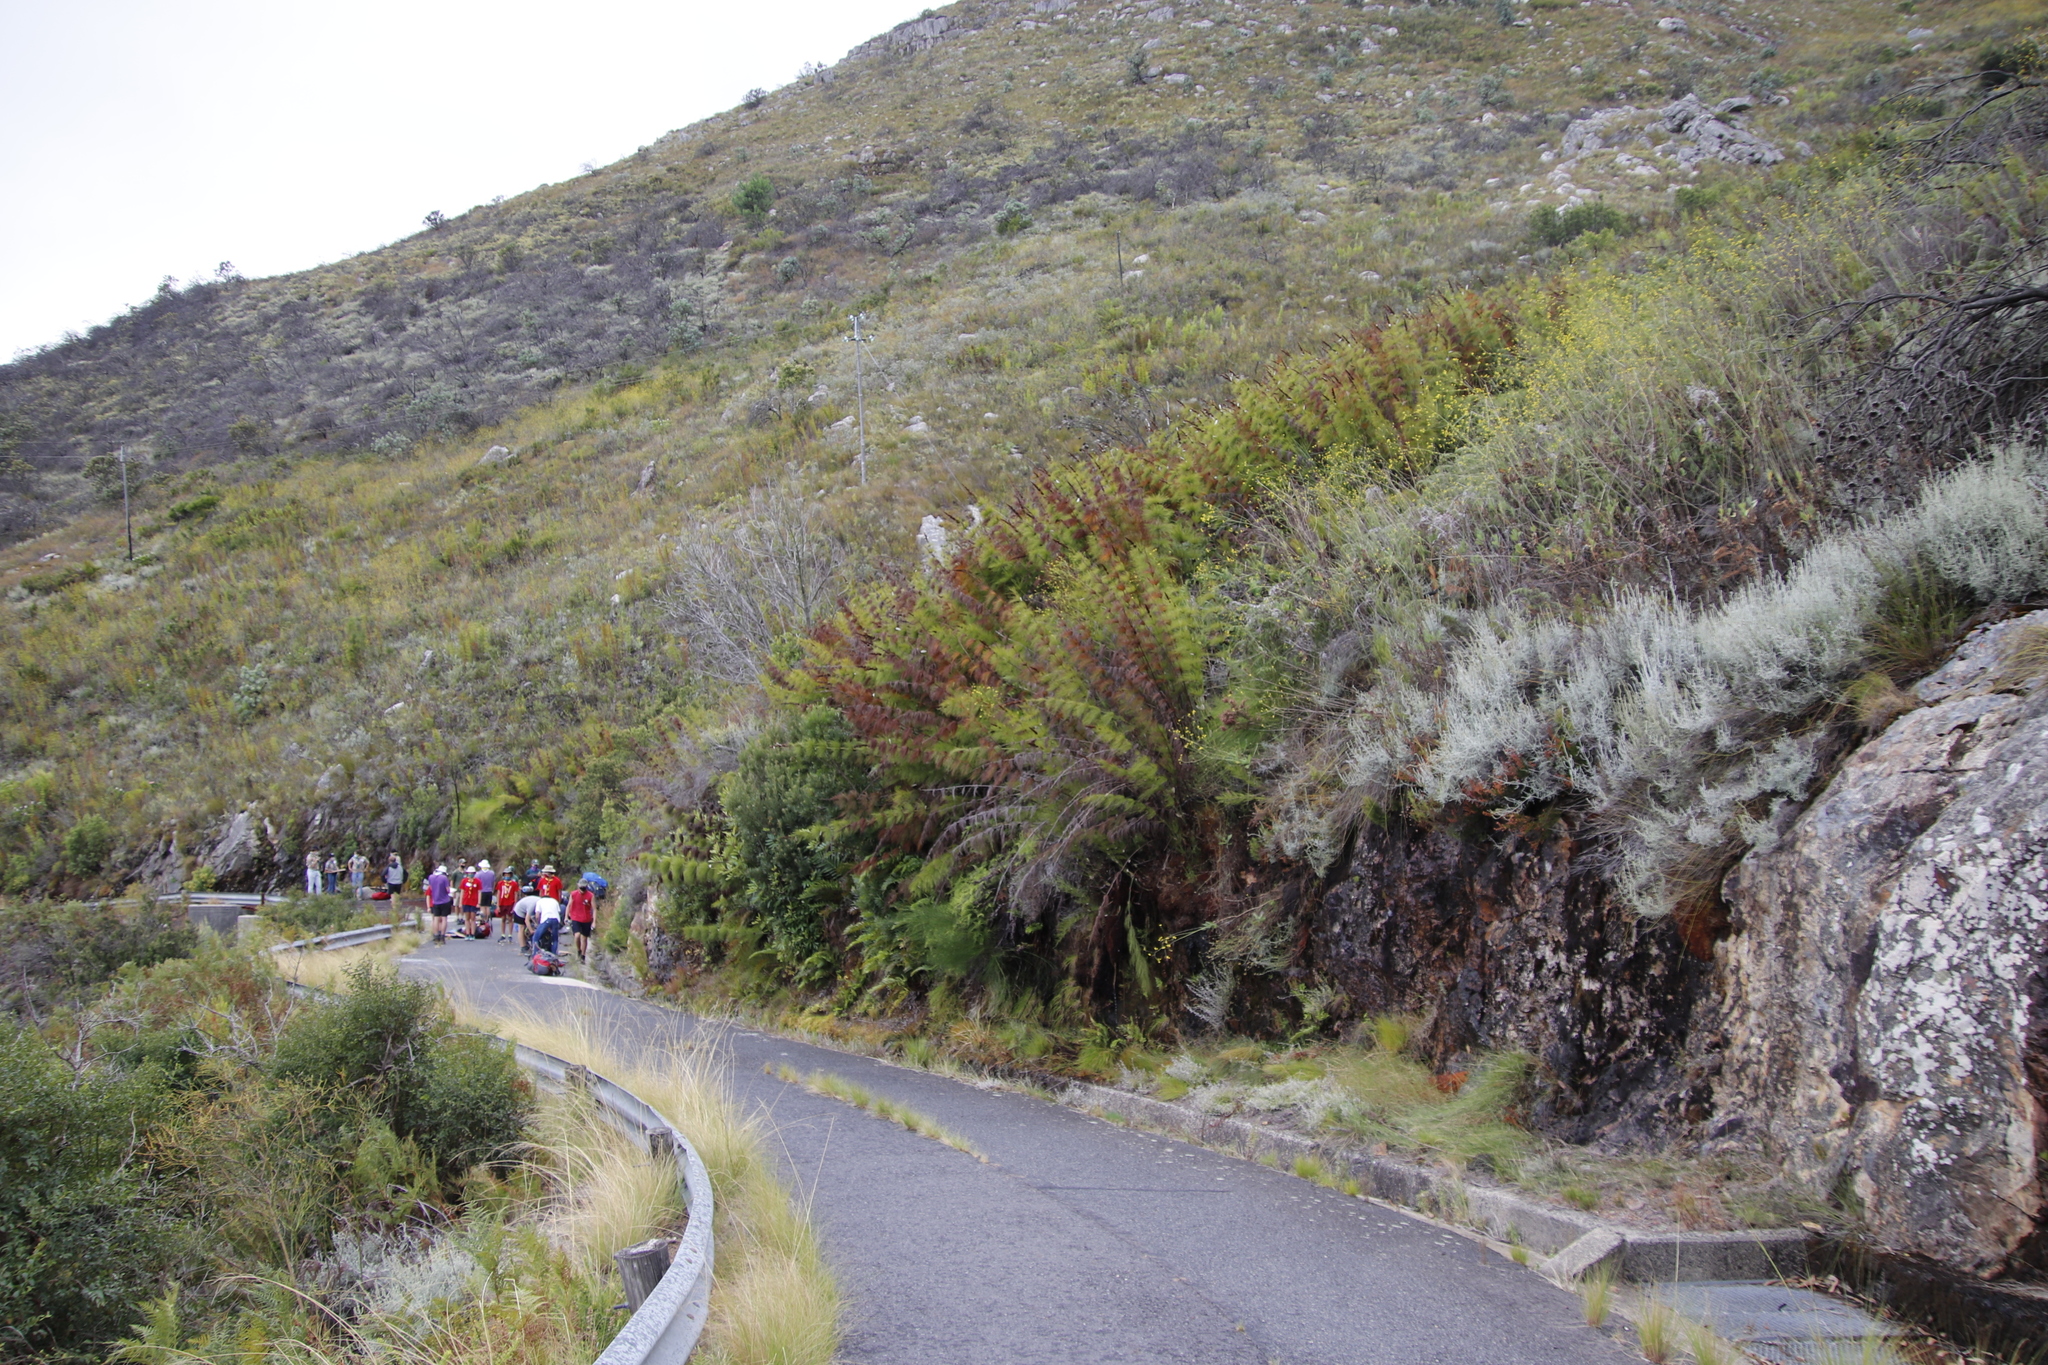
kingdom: Plantae
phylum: Tracheophyta
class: Liliopsida
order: Poales
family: Restionaceae
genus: Elegia
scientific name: Elegia capensis
